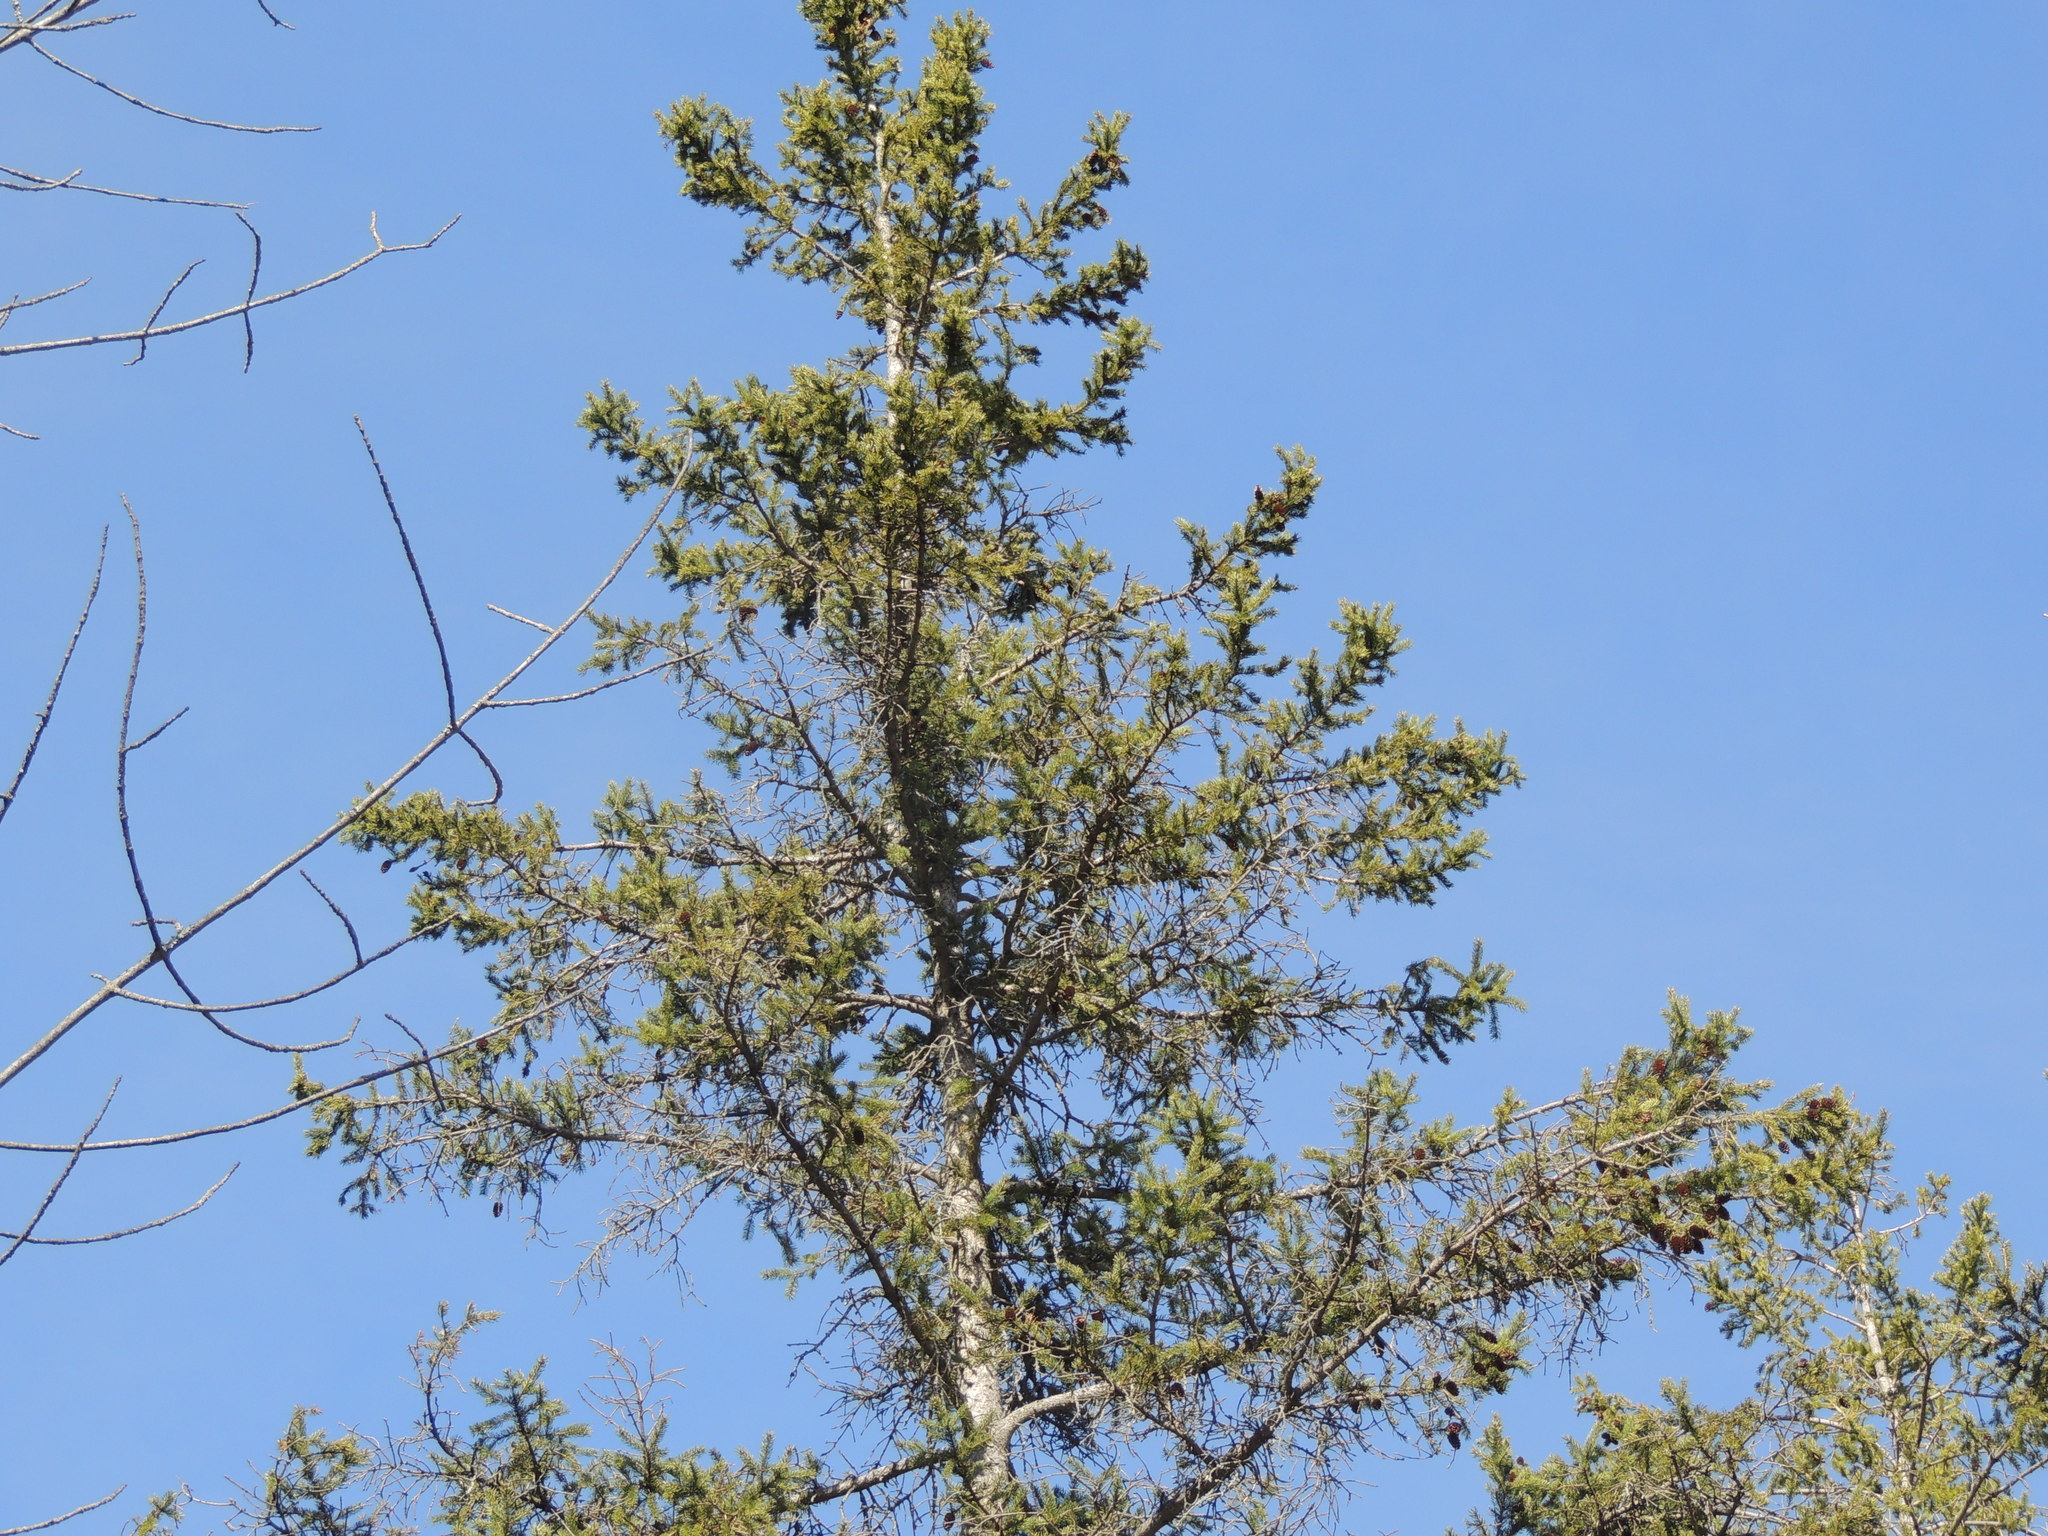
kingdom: Plantae
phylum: Tracheophyta
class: Pinopsida
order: Pinales
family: Pinaceae
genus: Picea
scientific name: Picea glauca
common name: White spruce
